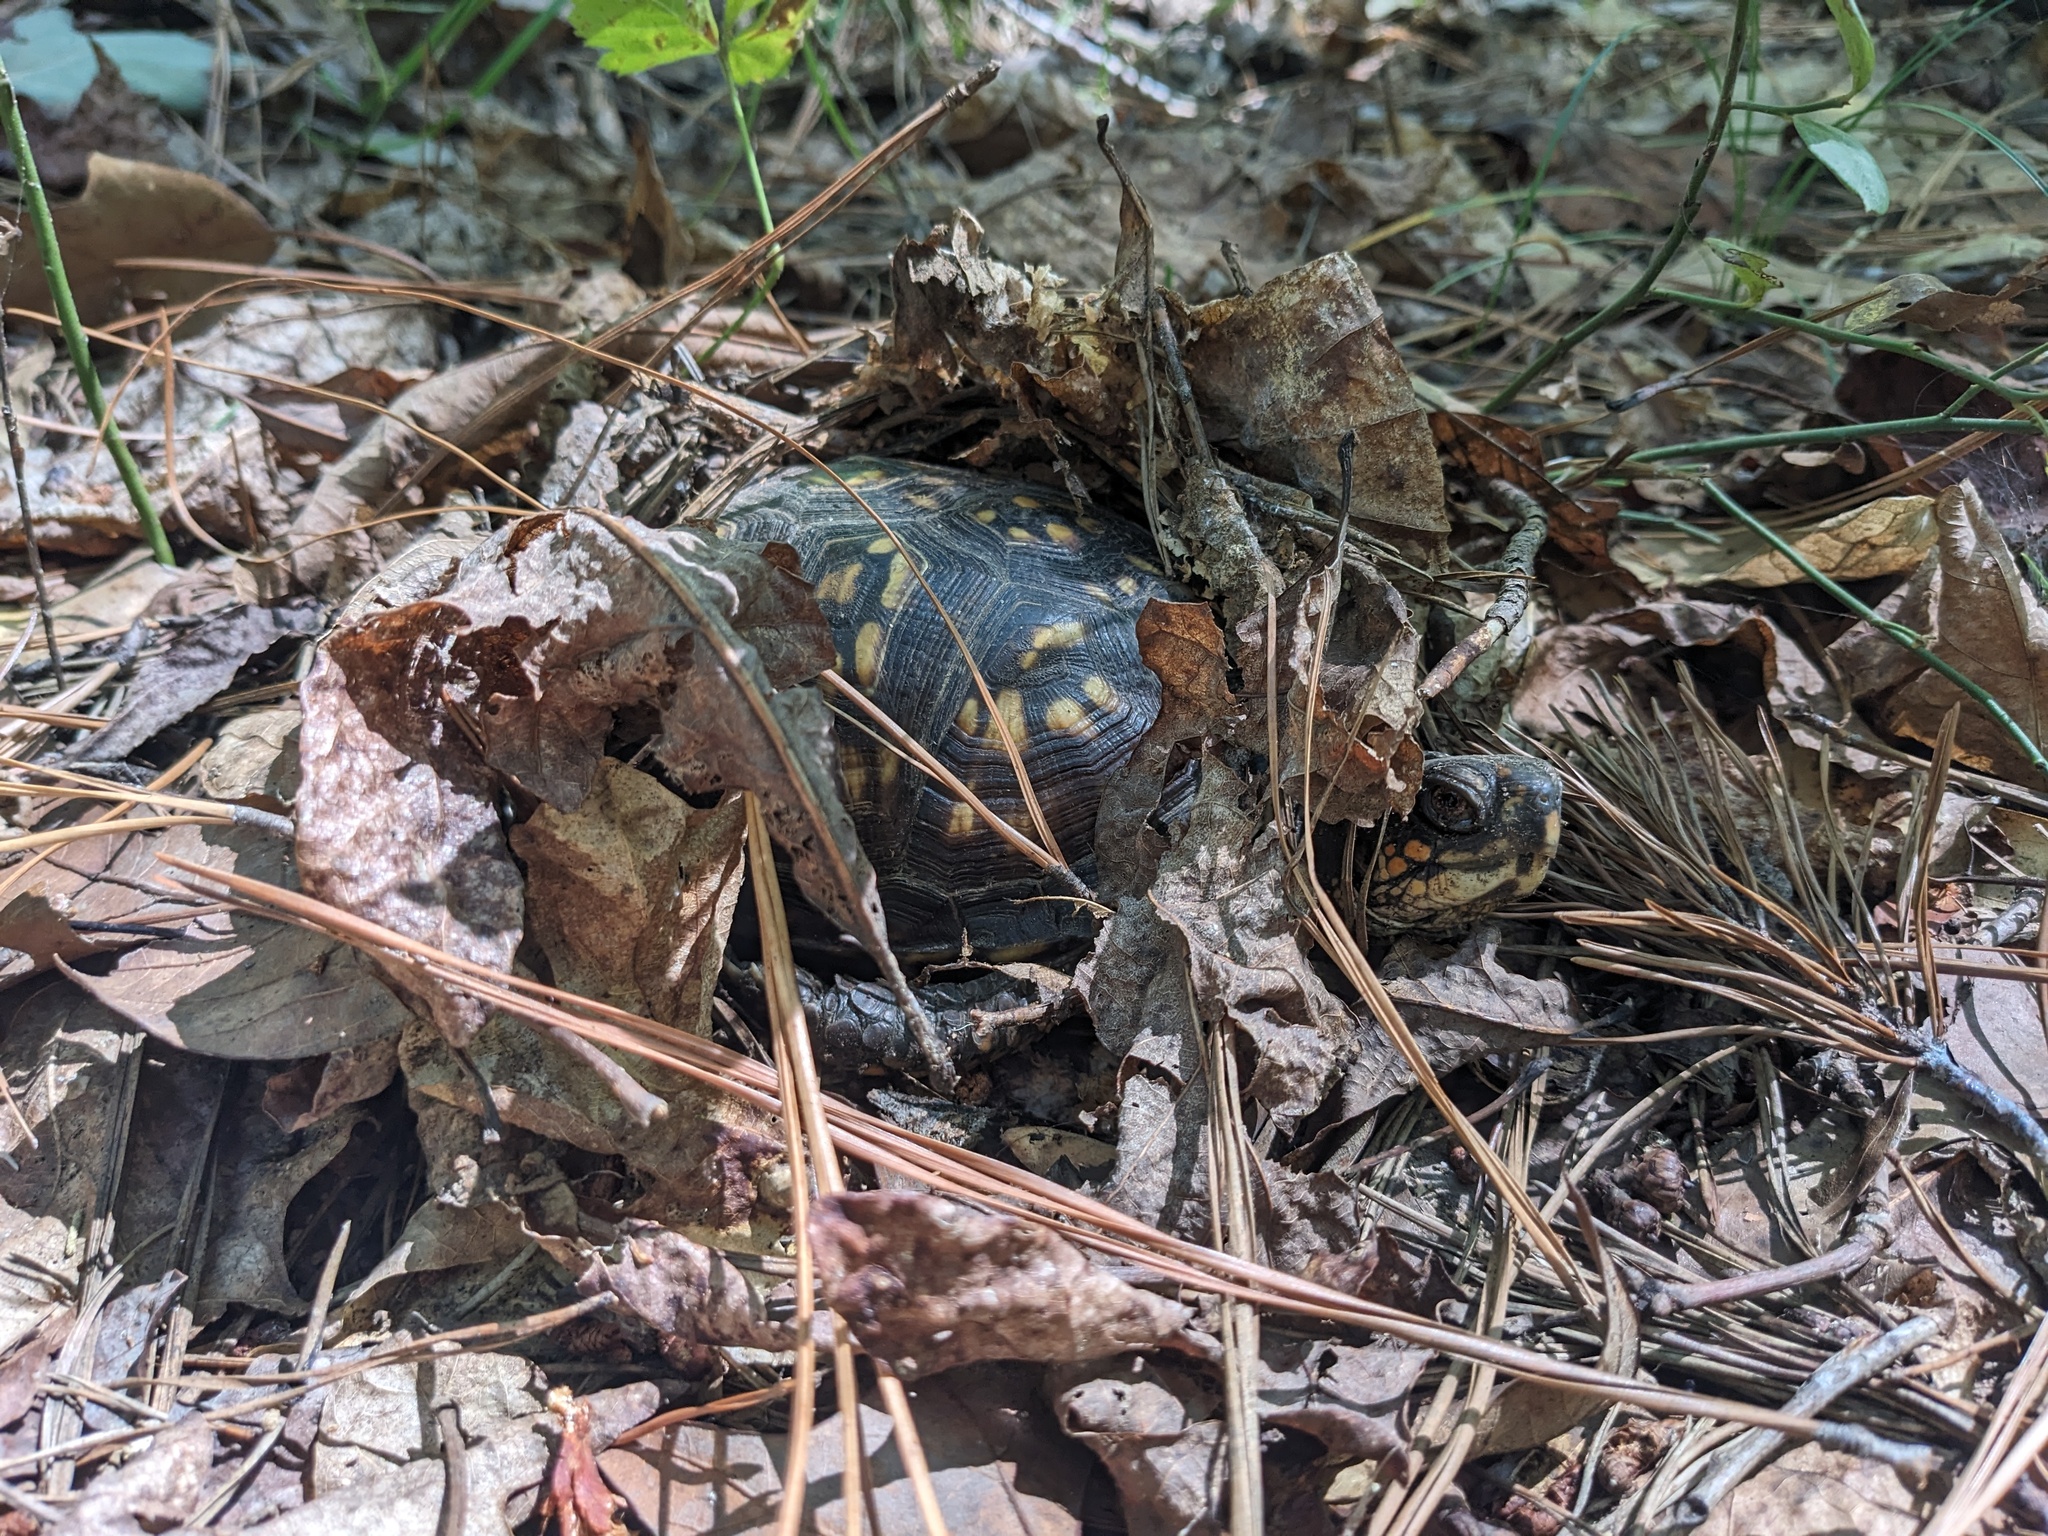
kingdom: Animalia
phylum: Chordata
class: Testudines
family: Emydidae
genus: Terrapene
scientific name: Terrapene carolina
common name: Common box turtle
